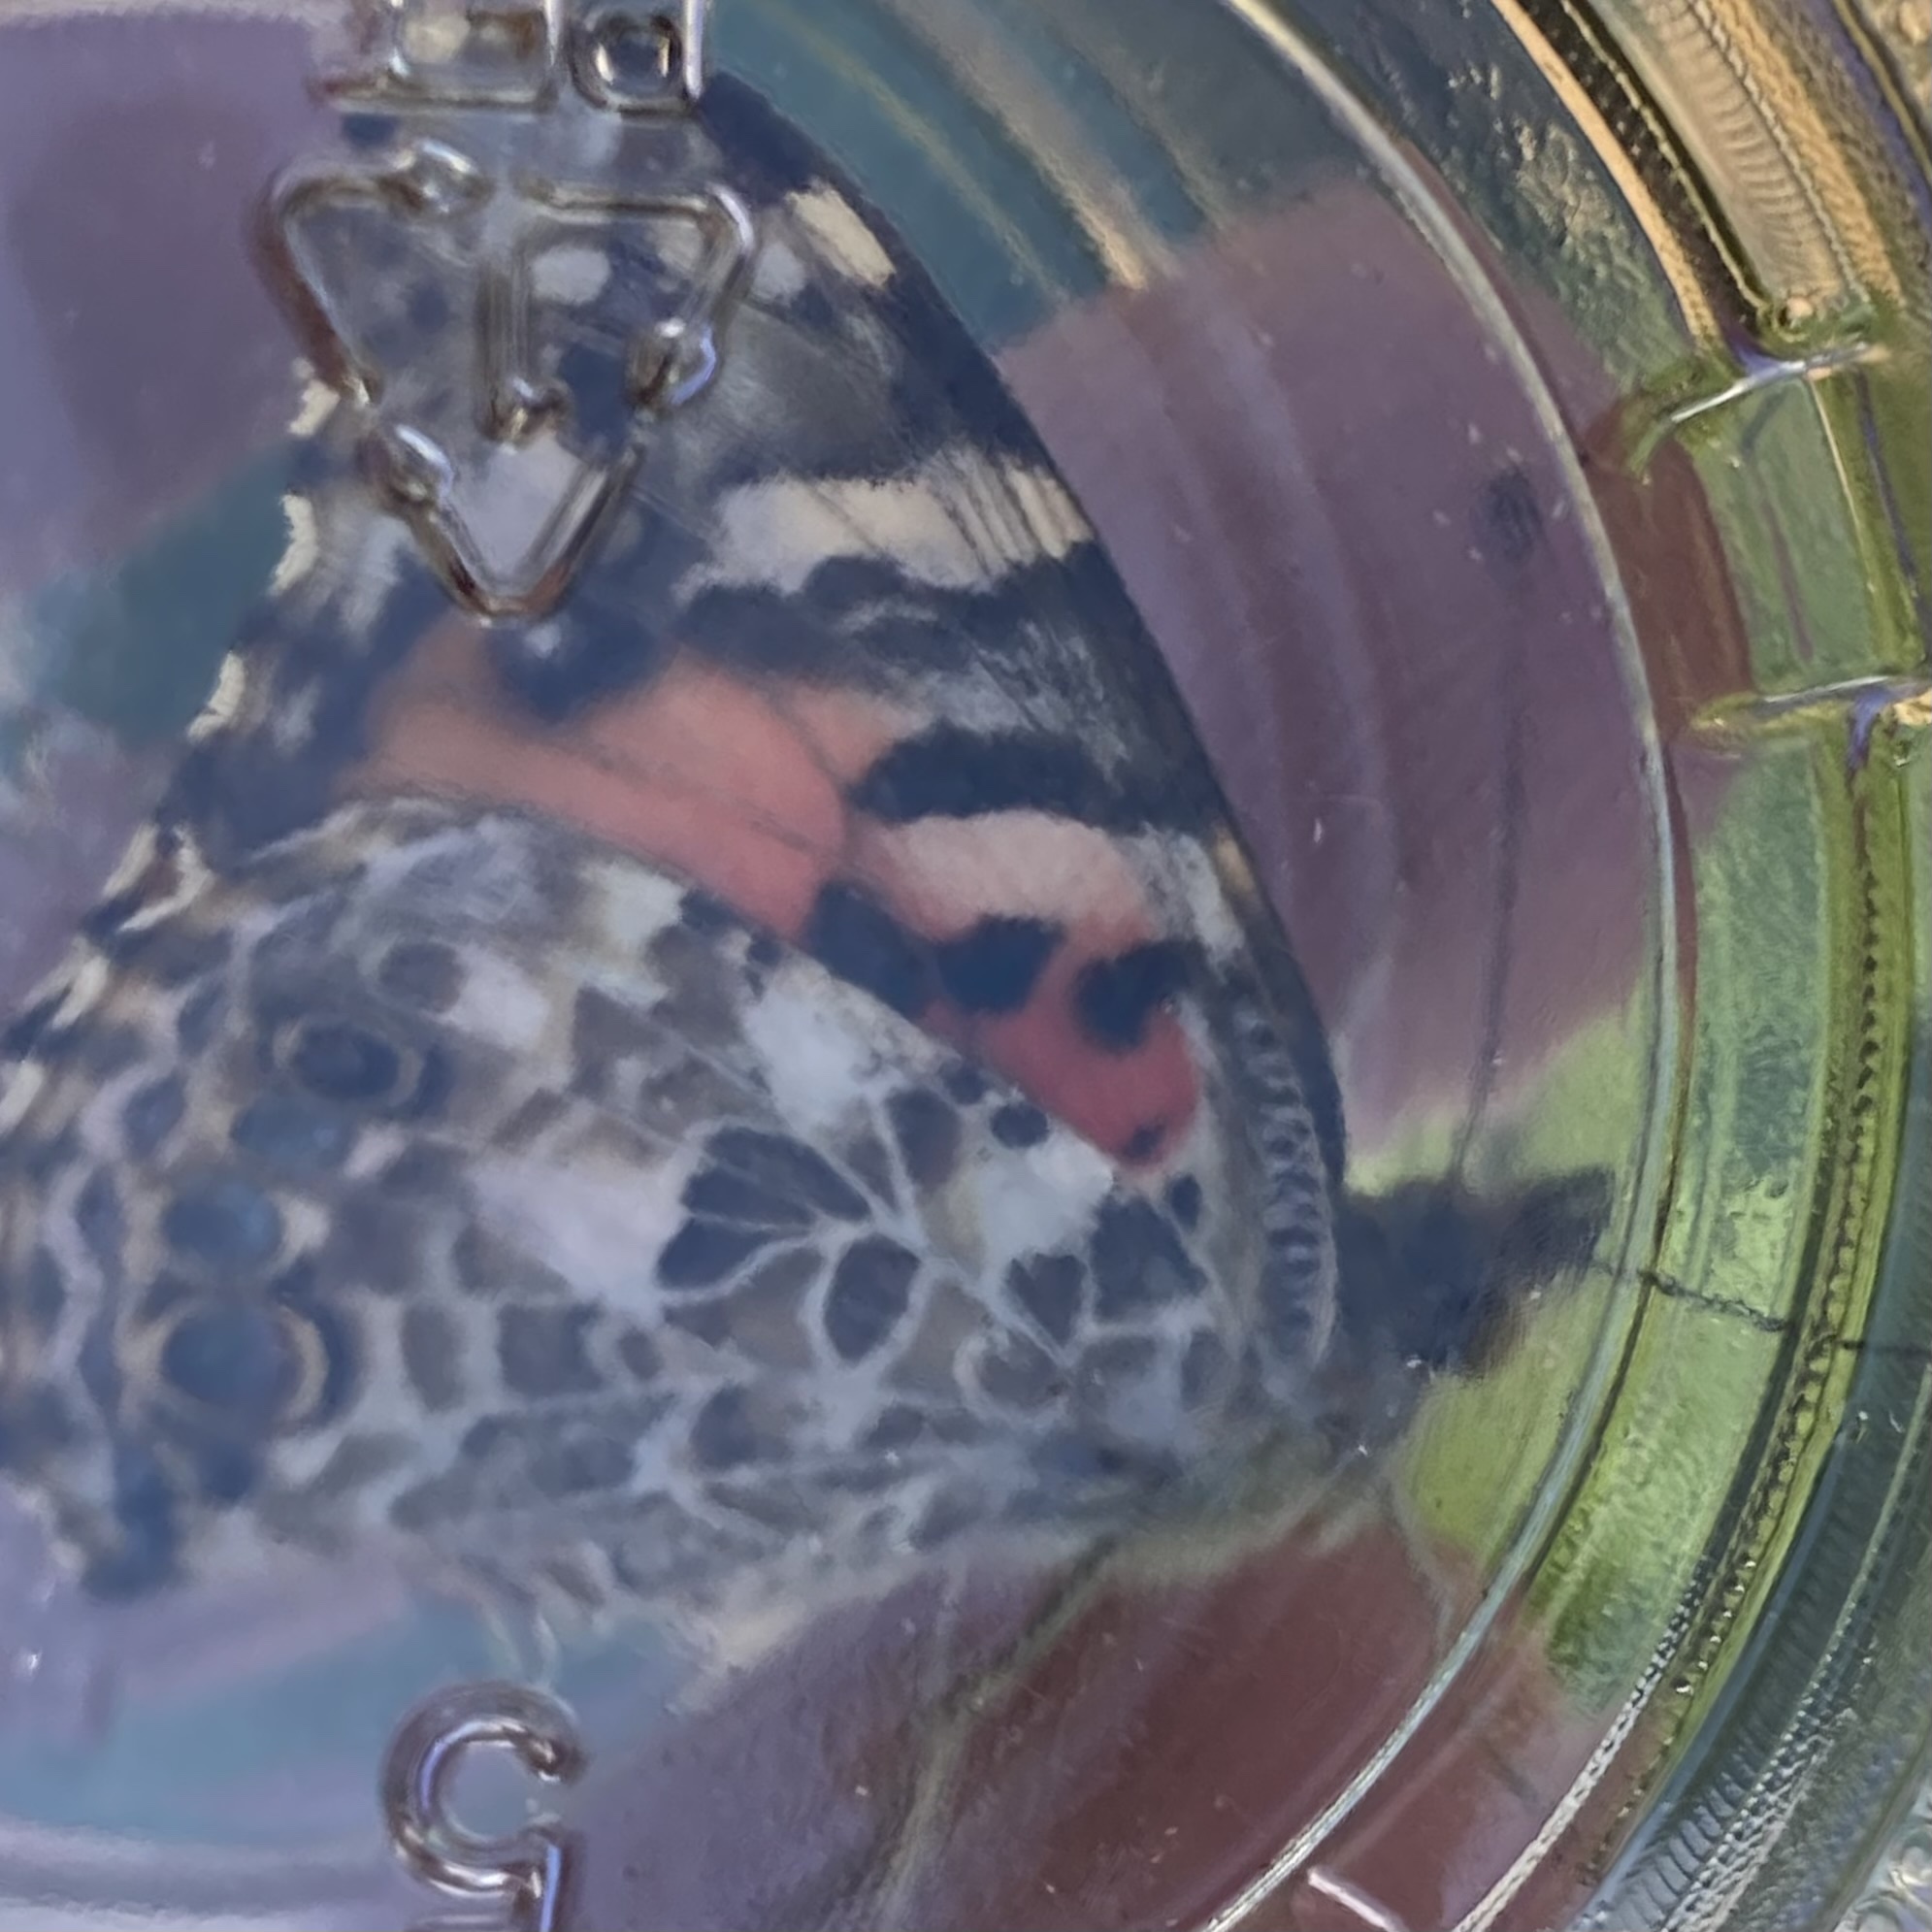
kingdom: Animalia
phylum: Arthropoda
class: Insecta
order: Lepidoptera
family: Nymphalidae
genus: Vanessa
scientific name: Vanessa cardui
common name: Painted lady
